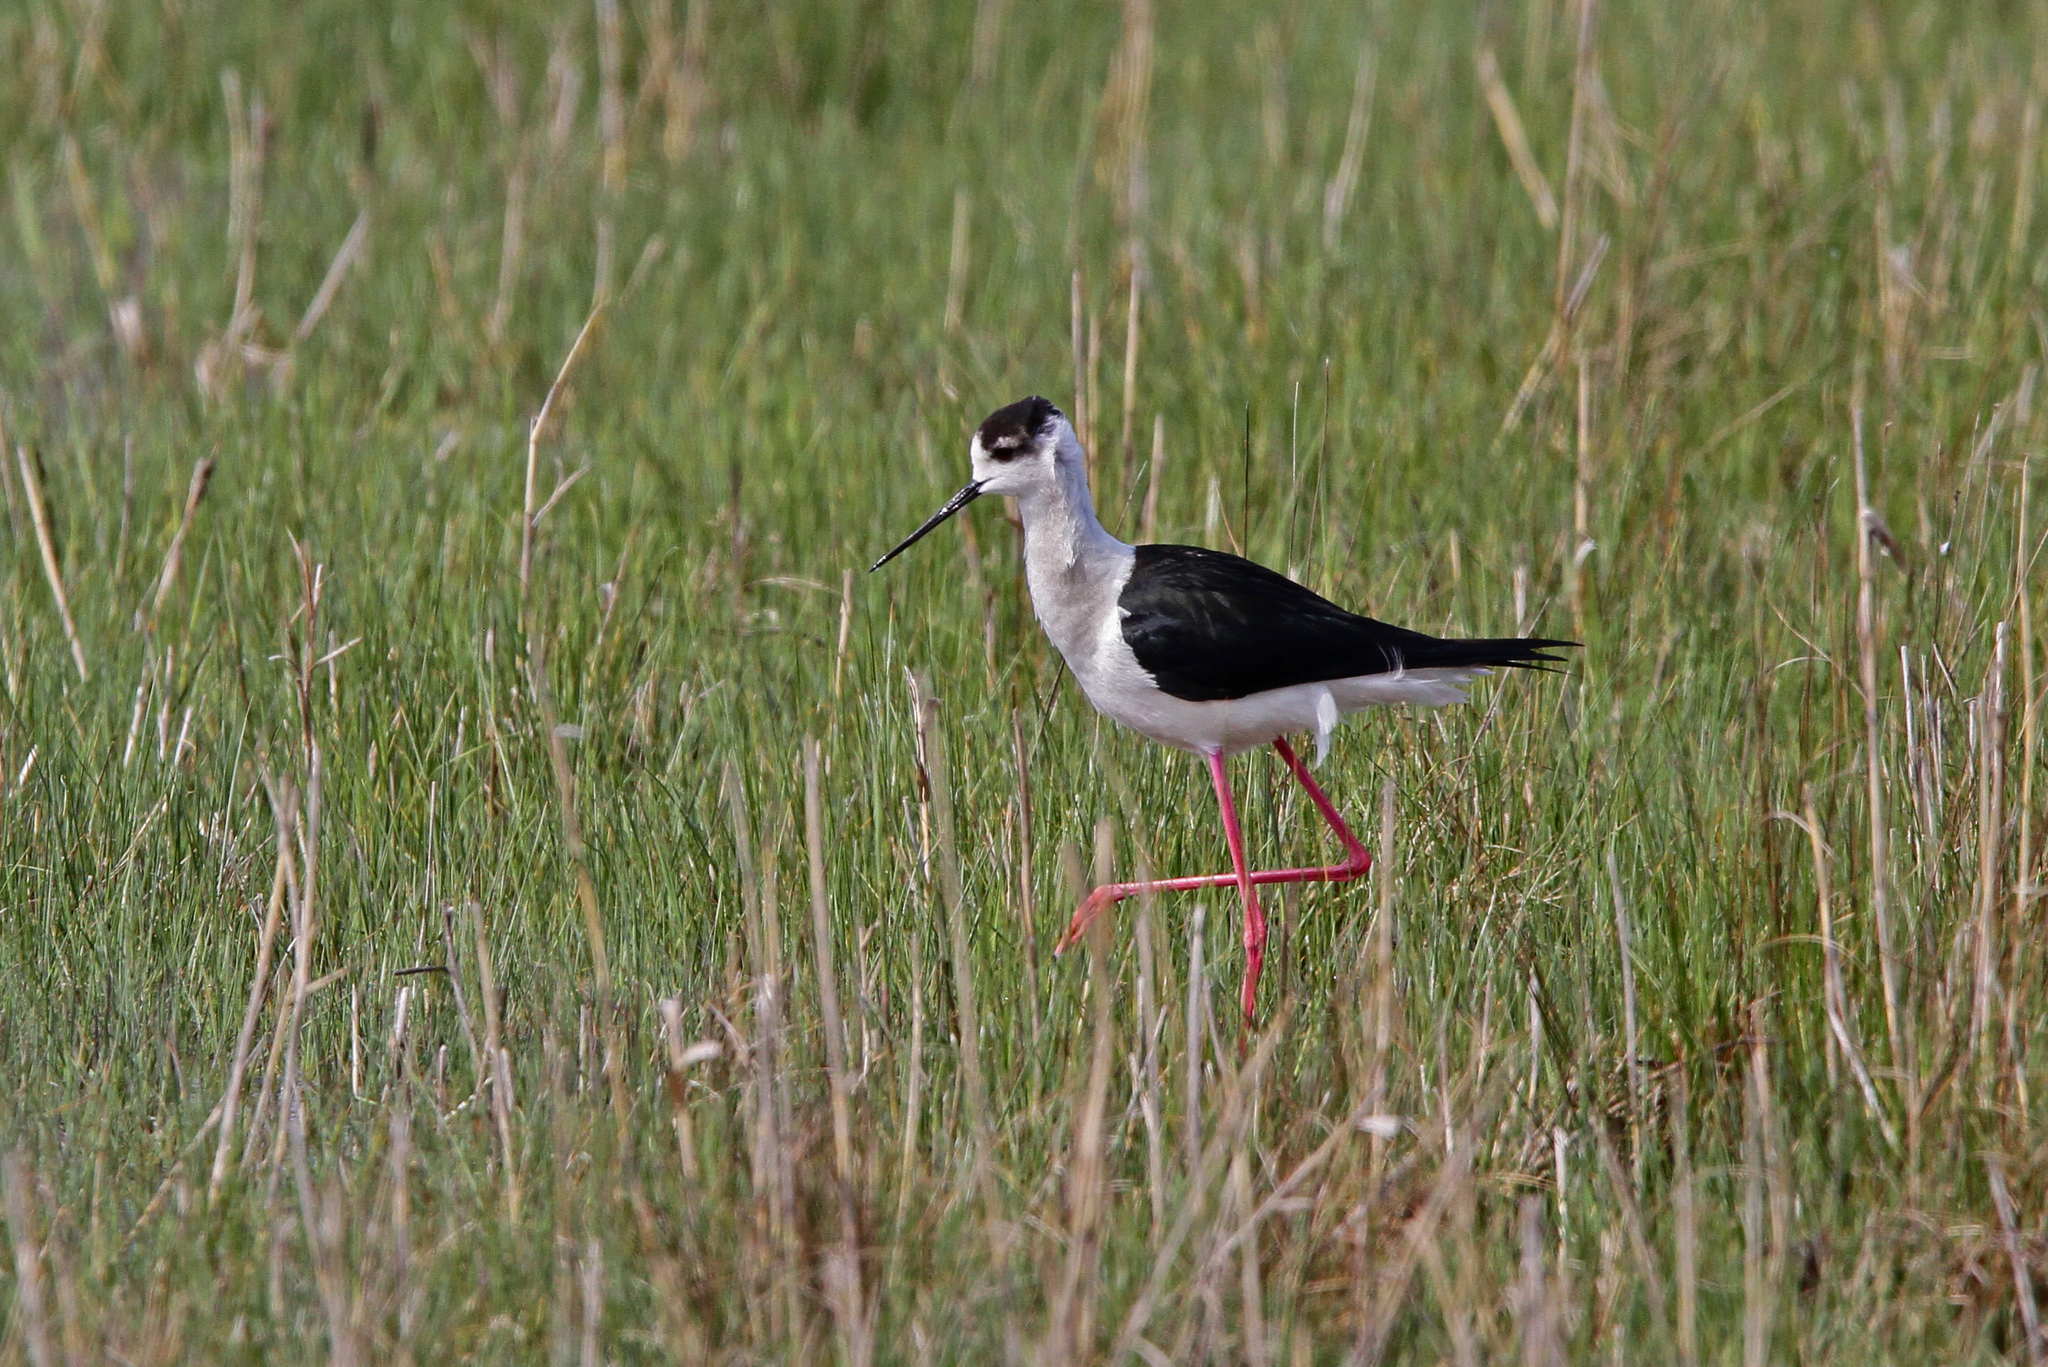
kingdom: Animalia
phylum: Chordata
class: Aves
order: Charadriiformes
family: Recurvirostridae
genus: Himantopus
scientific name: Himantopus himantopus
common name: Black-winged stilt
